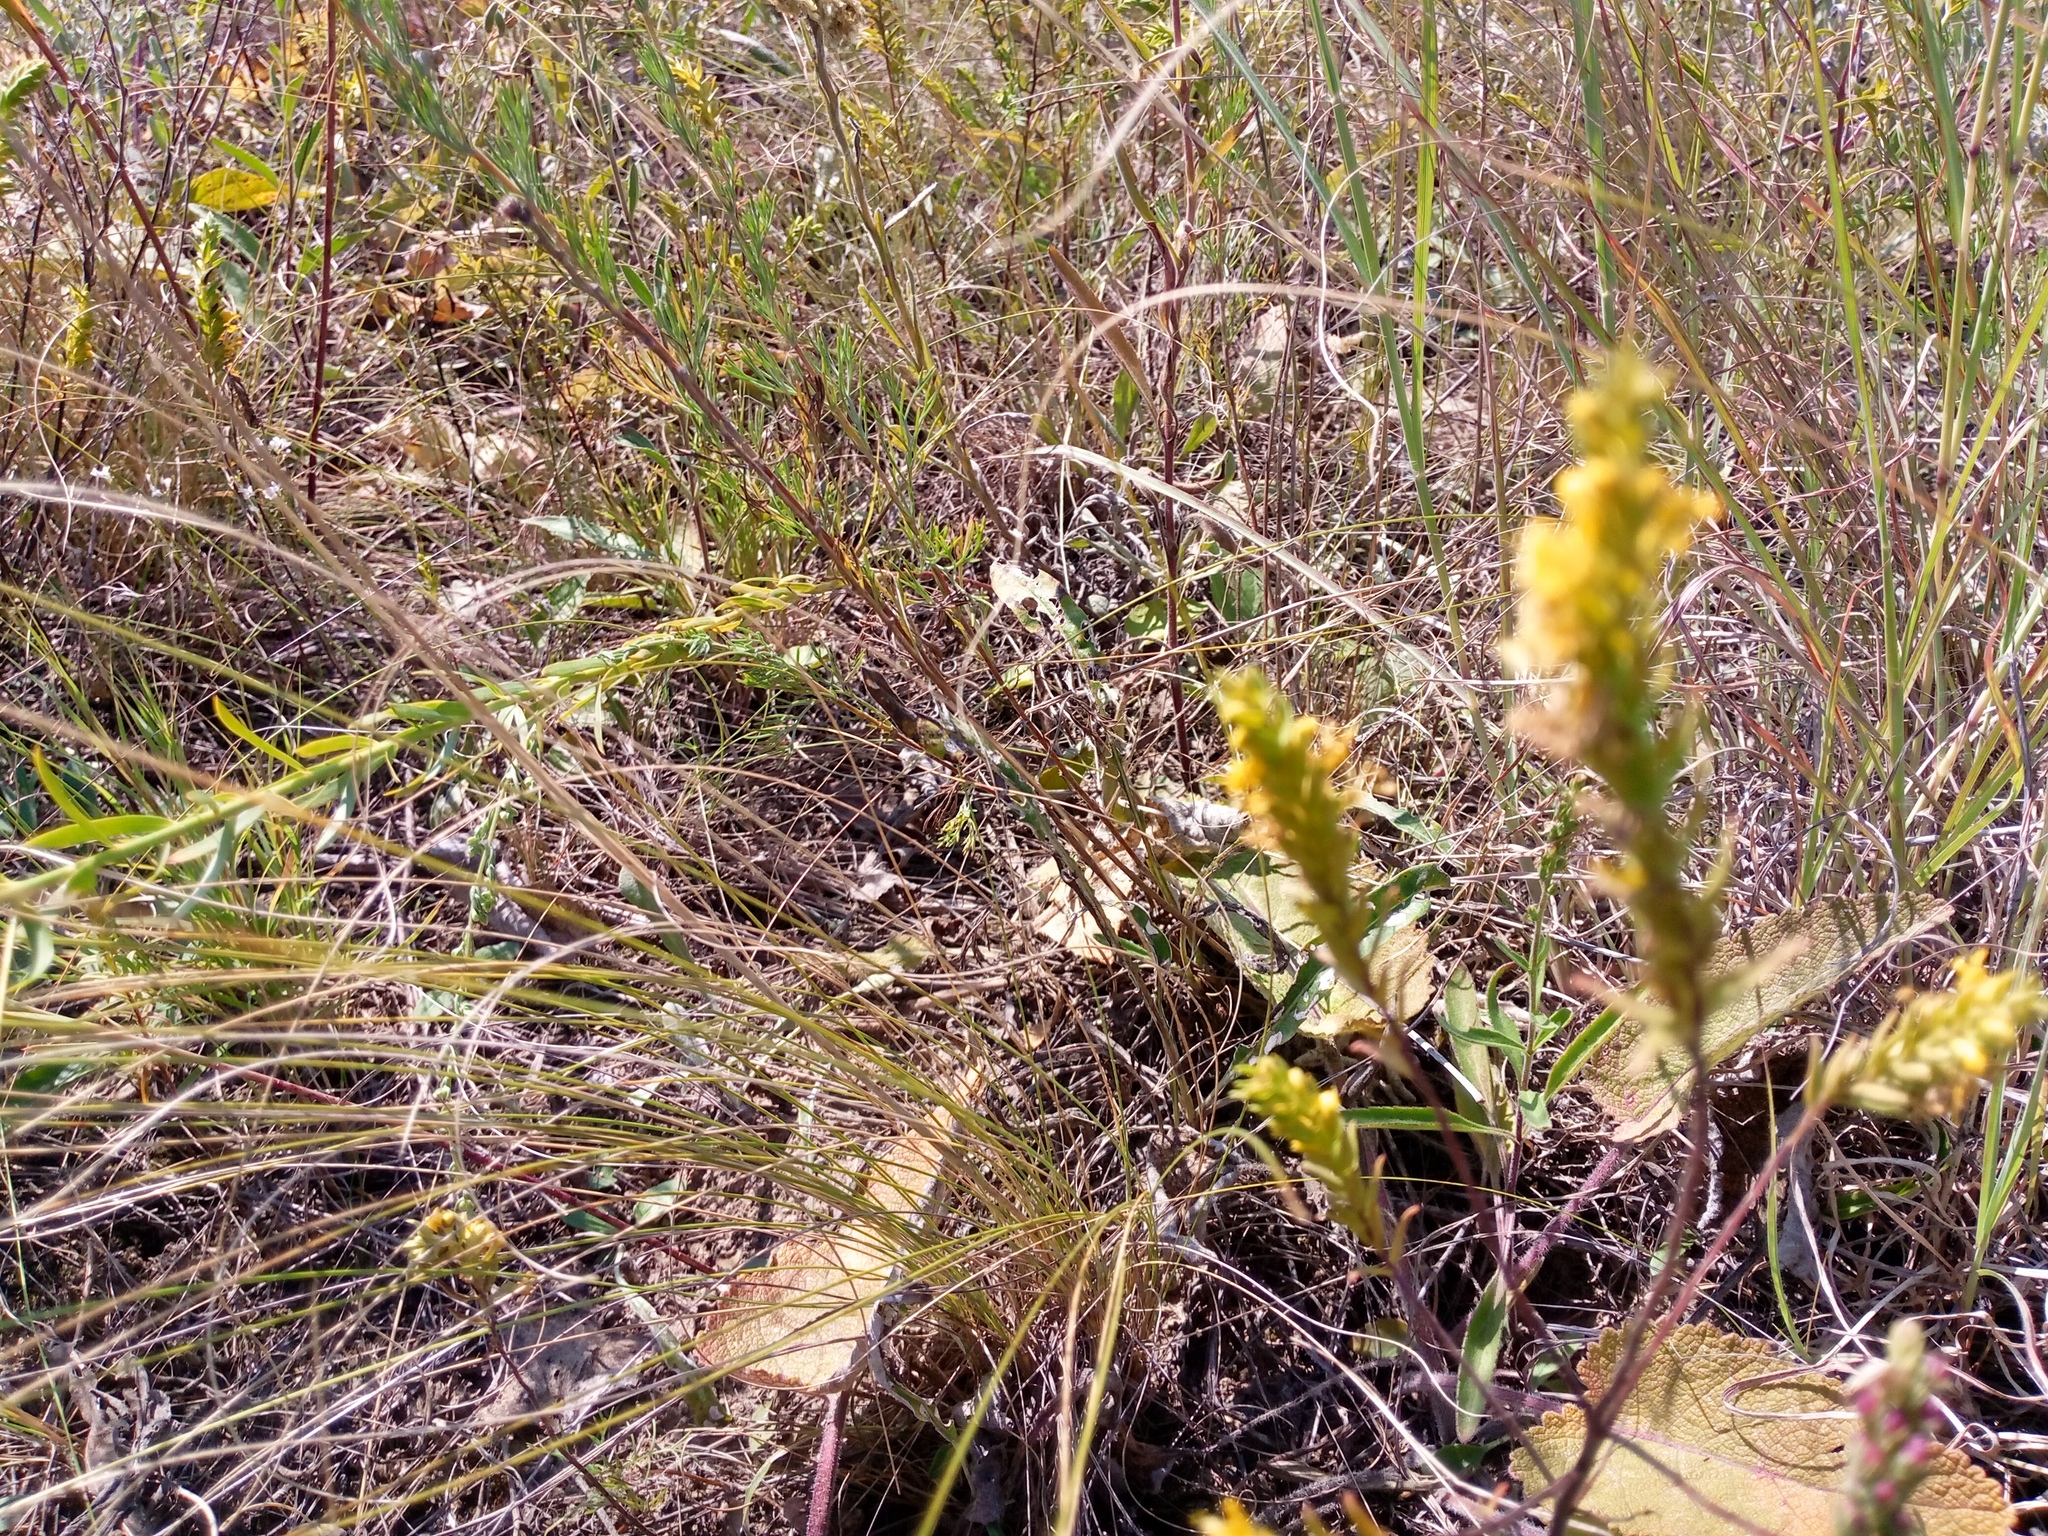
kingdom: Plantae
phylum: Tracheophyta
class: Magnoliopsida
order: Lamiales
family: Orobanchaceae
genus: Odontites
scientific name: Odontites luteus
